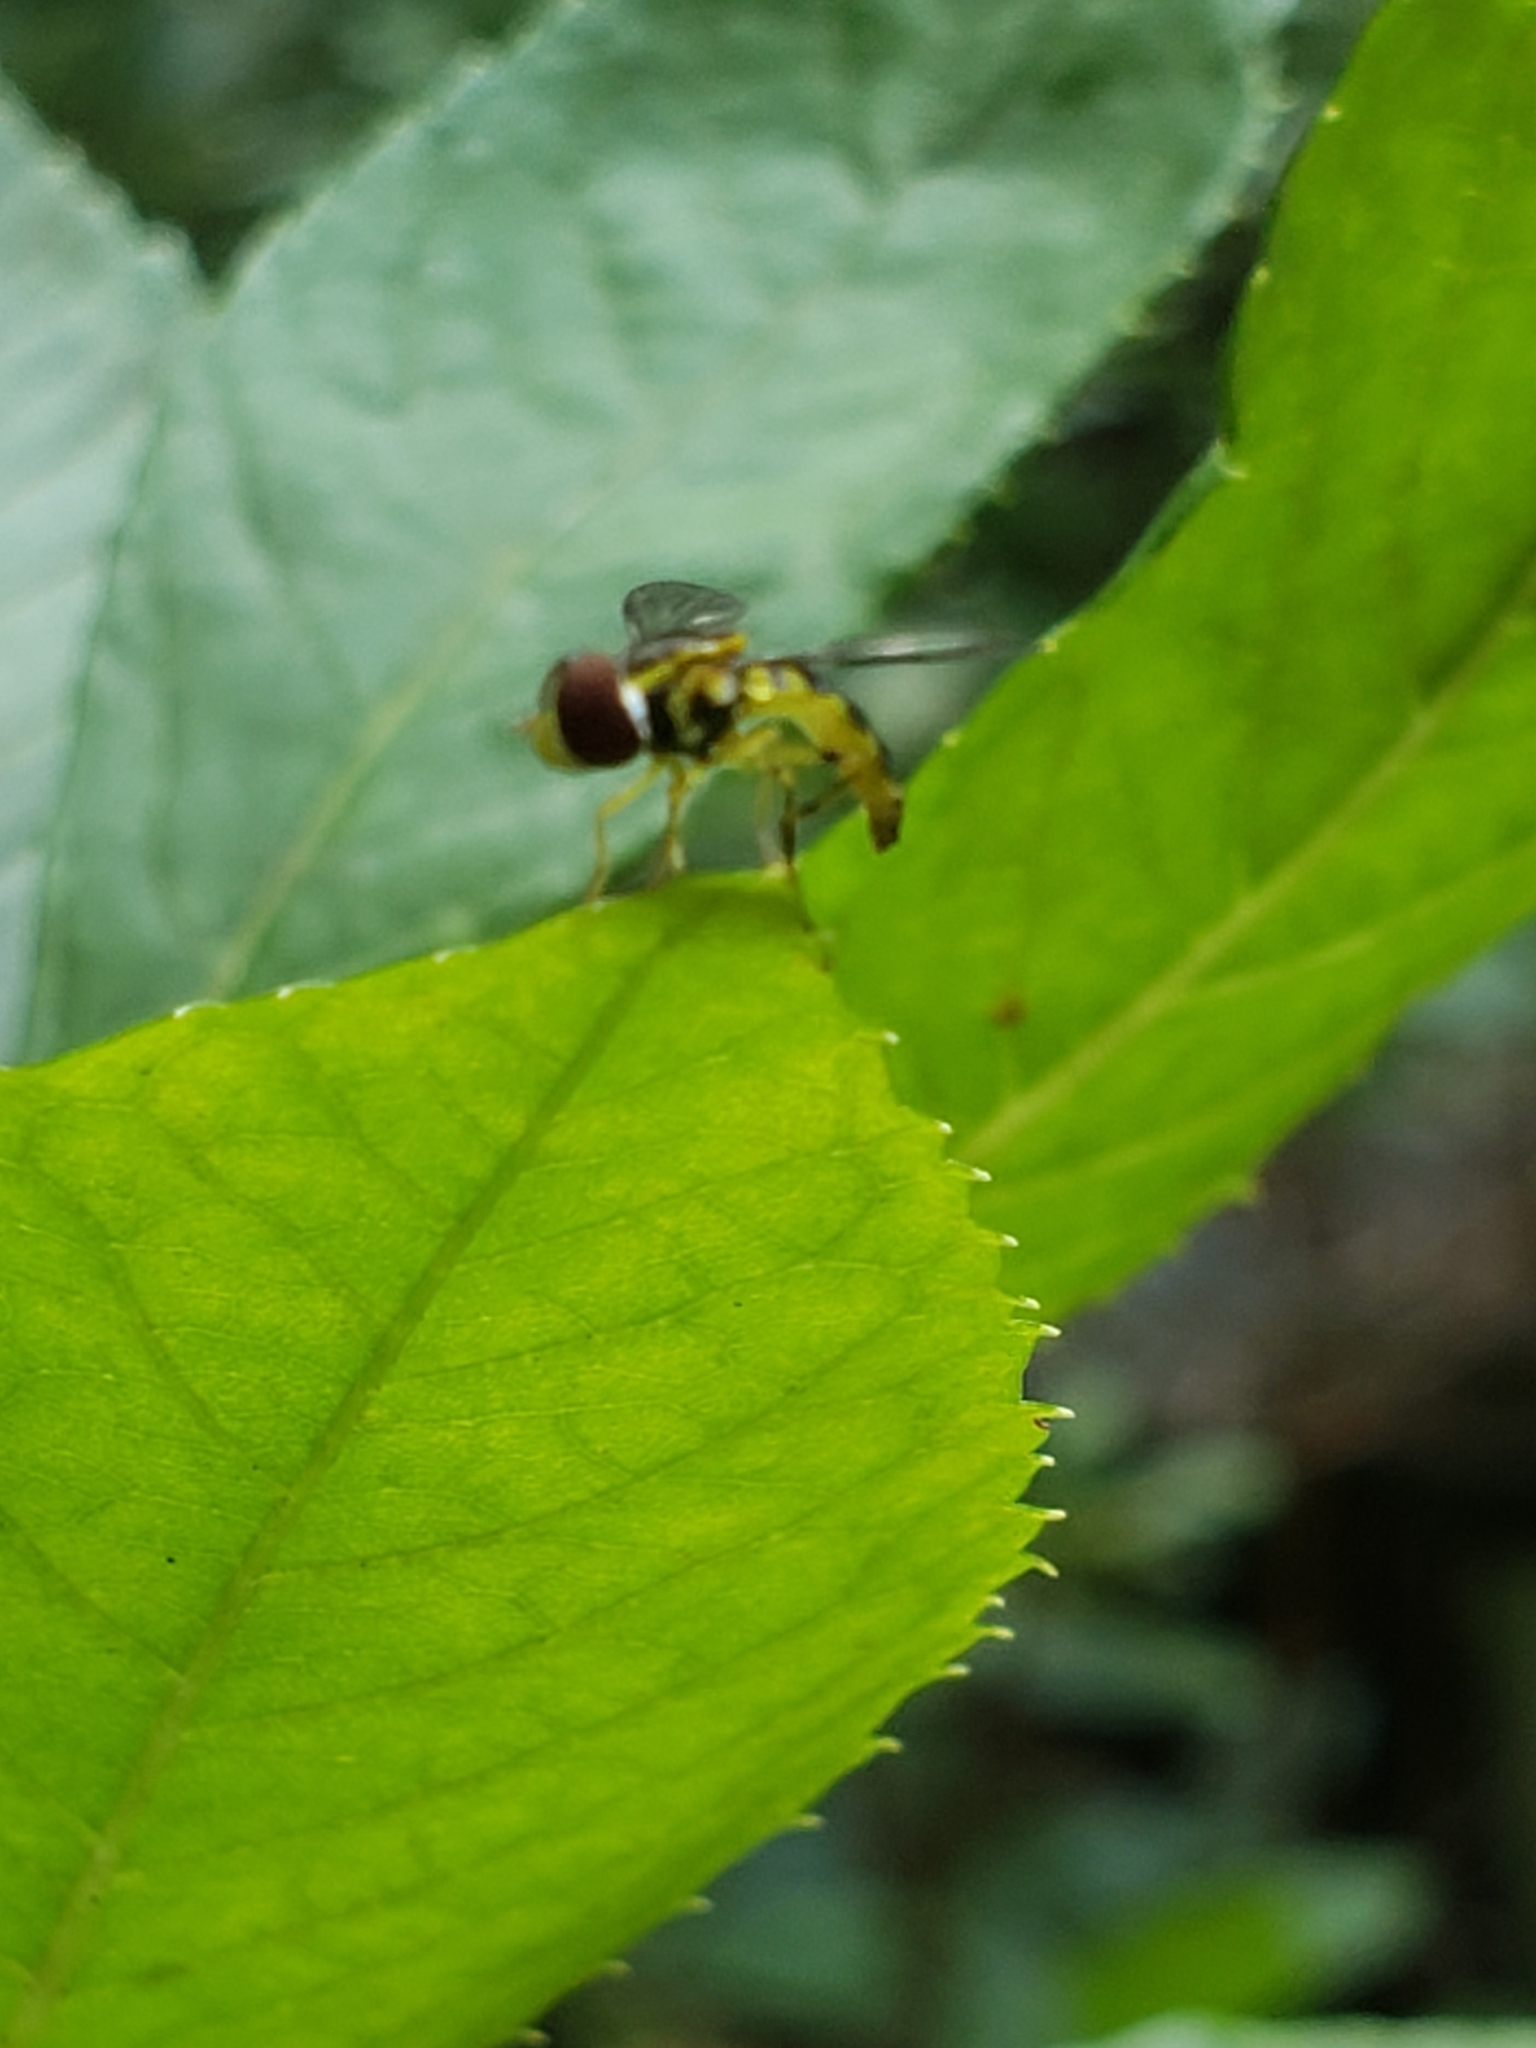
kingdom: Animalia
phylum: Arthropoda
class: Insecta
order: Diptera
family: Syrphidae
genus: Toxomerus
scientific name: Toxomerus geminatus
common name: Eastern calligrapher
